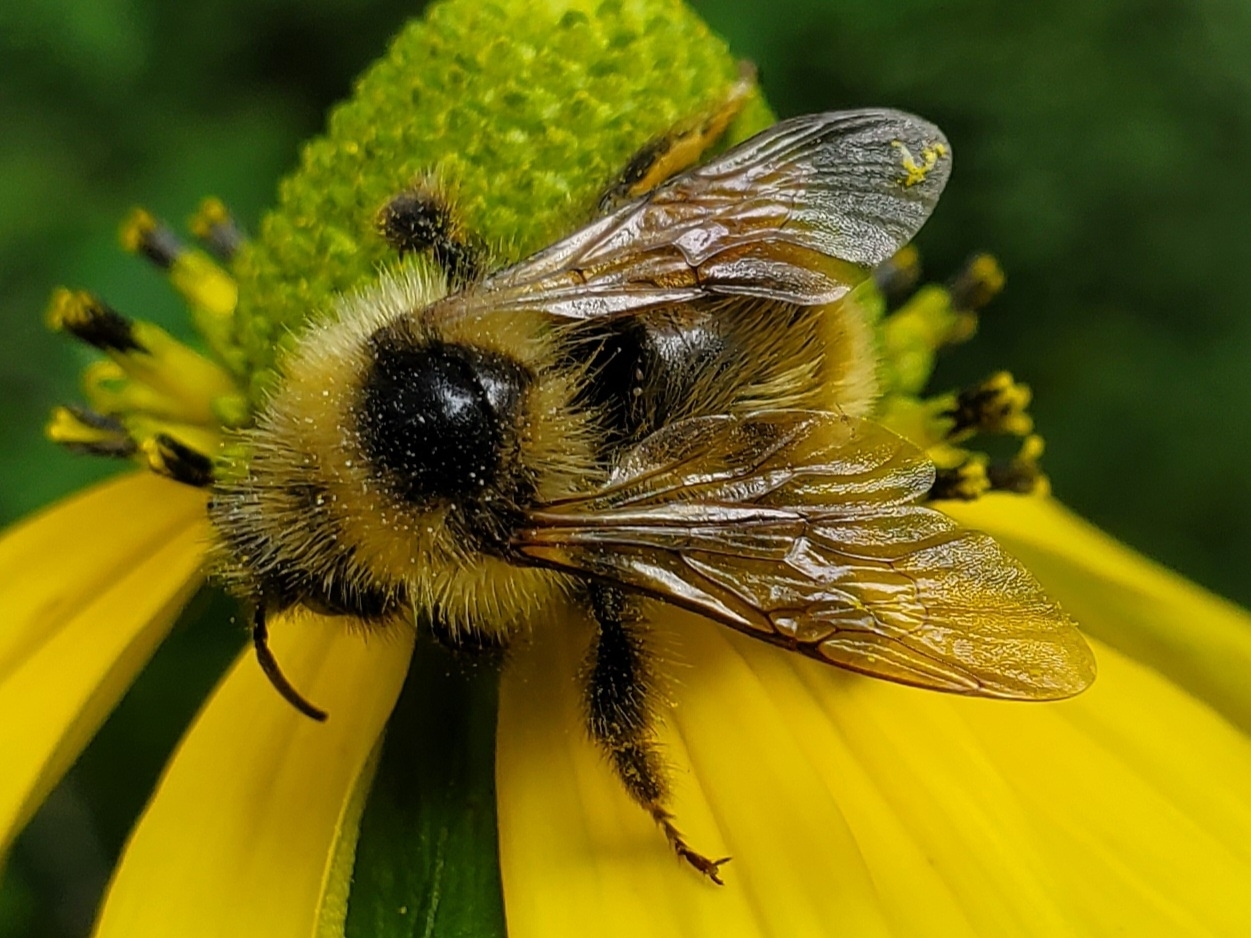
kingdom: Animalia
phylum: Arthropoda
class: Insecta
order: Hymenoptera
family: Apidae
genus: Bombus
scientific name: Bombus flavidus
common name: Fernald cuckoo bumble bee
